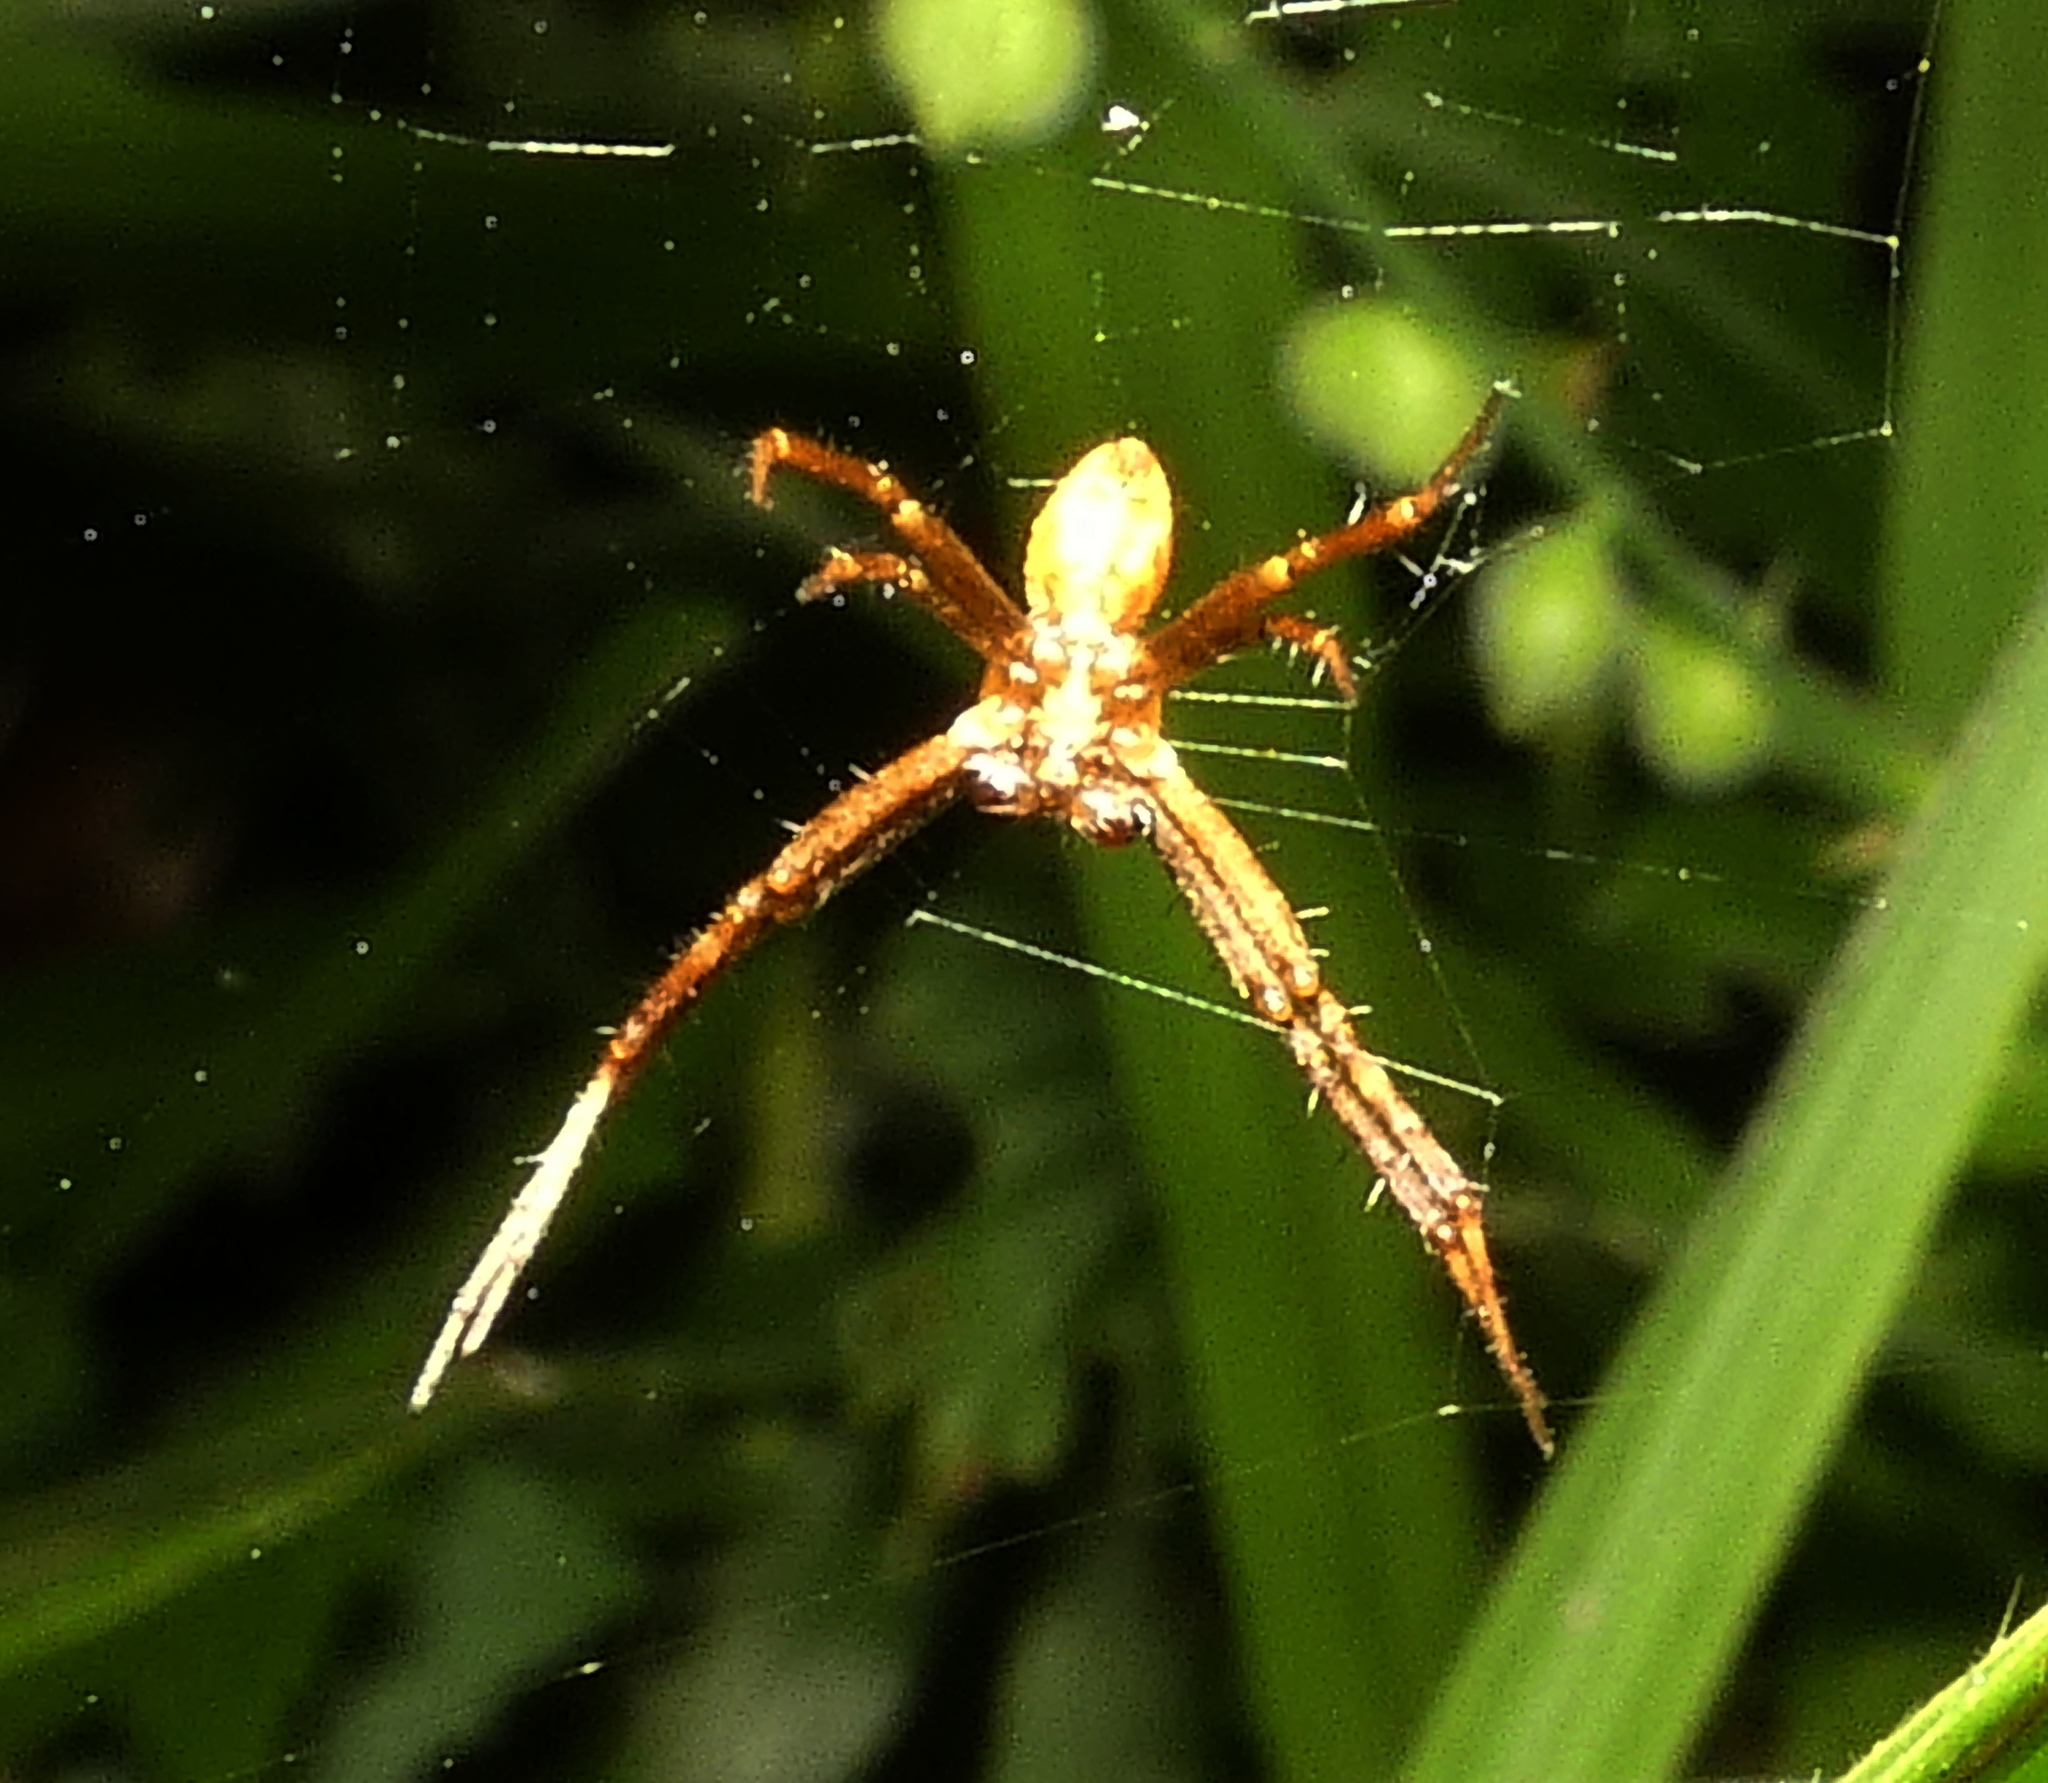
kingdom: Animalia
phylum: Arthropoda
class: Arachnida
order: Araneae
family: Araneidae
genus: Argiope
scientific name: Argiope argentata
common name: Orb weavers
